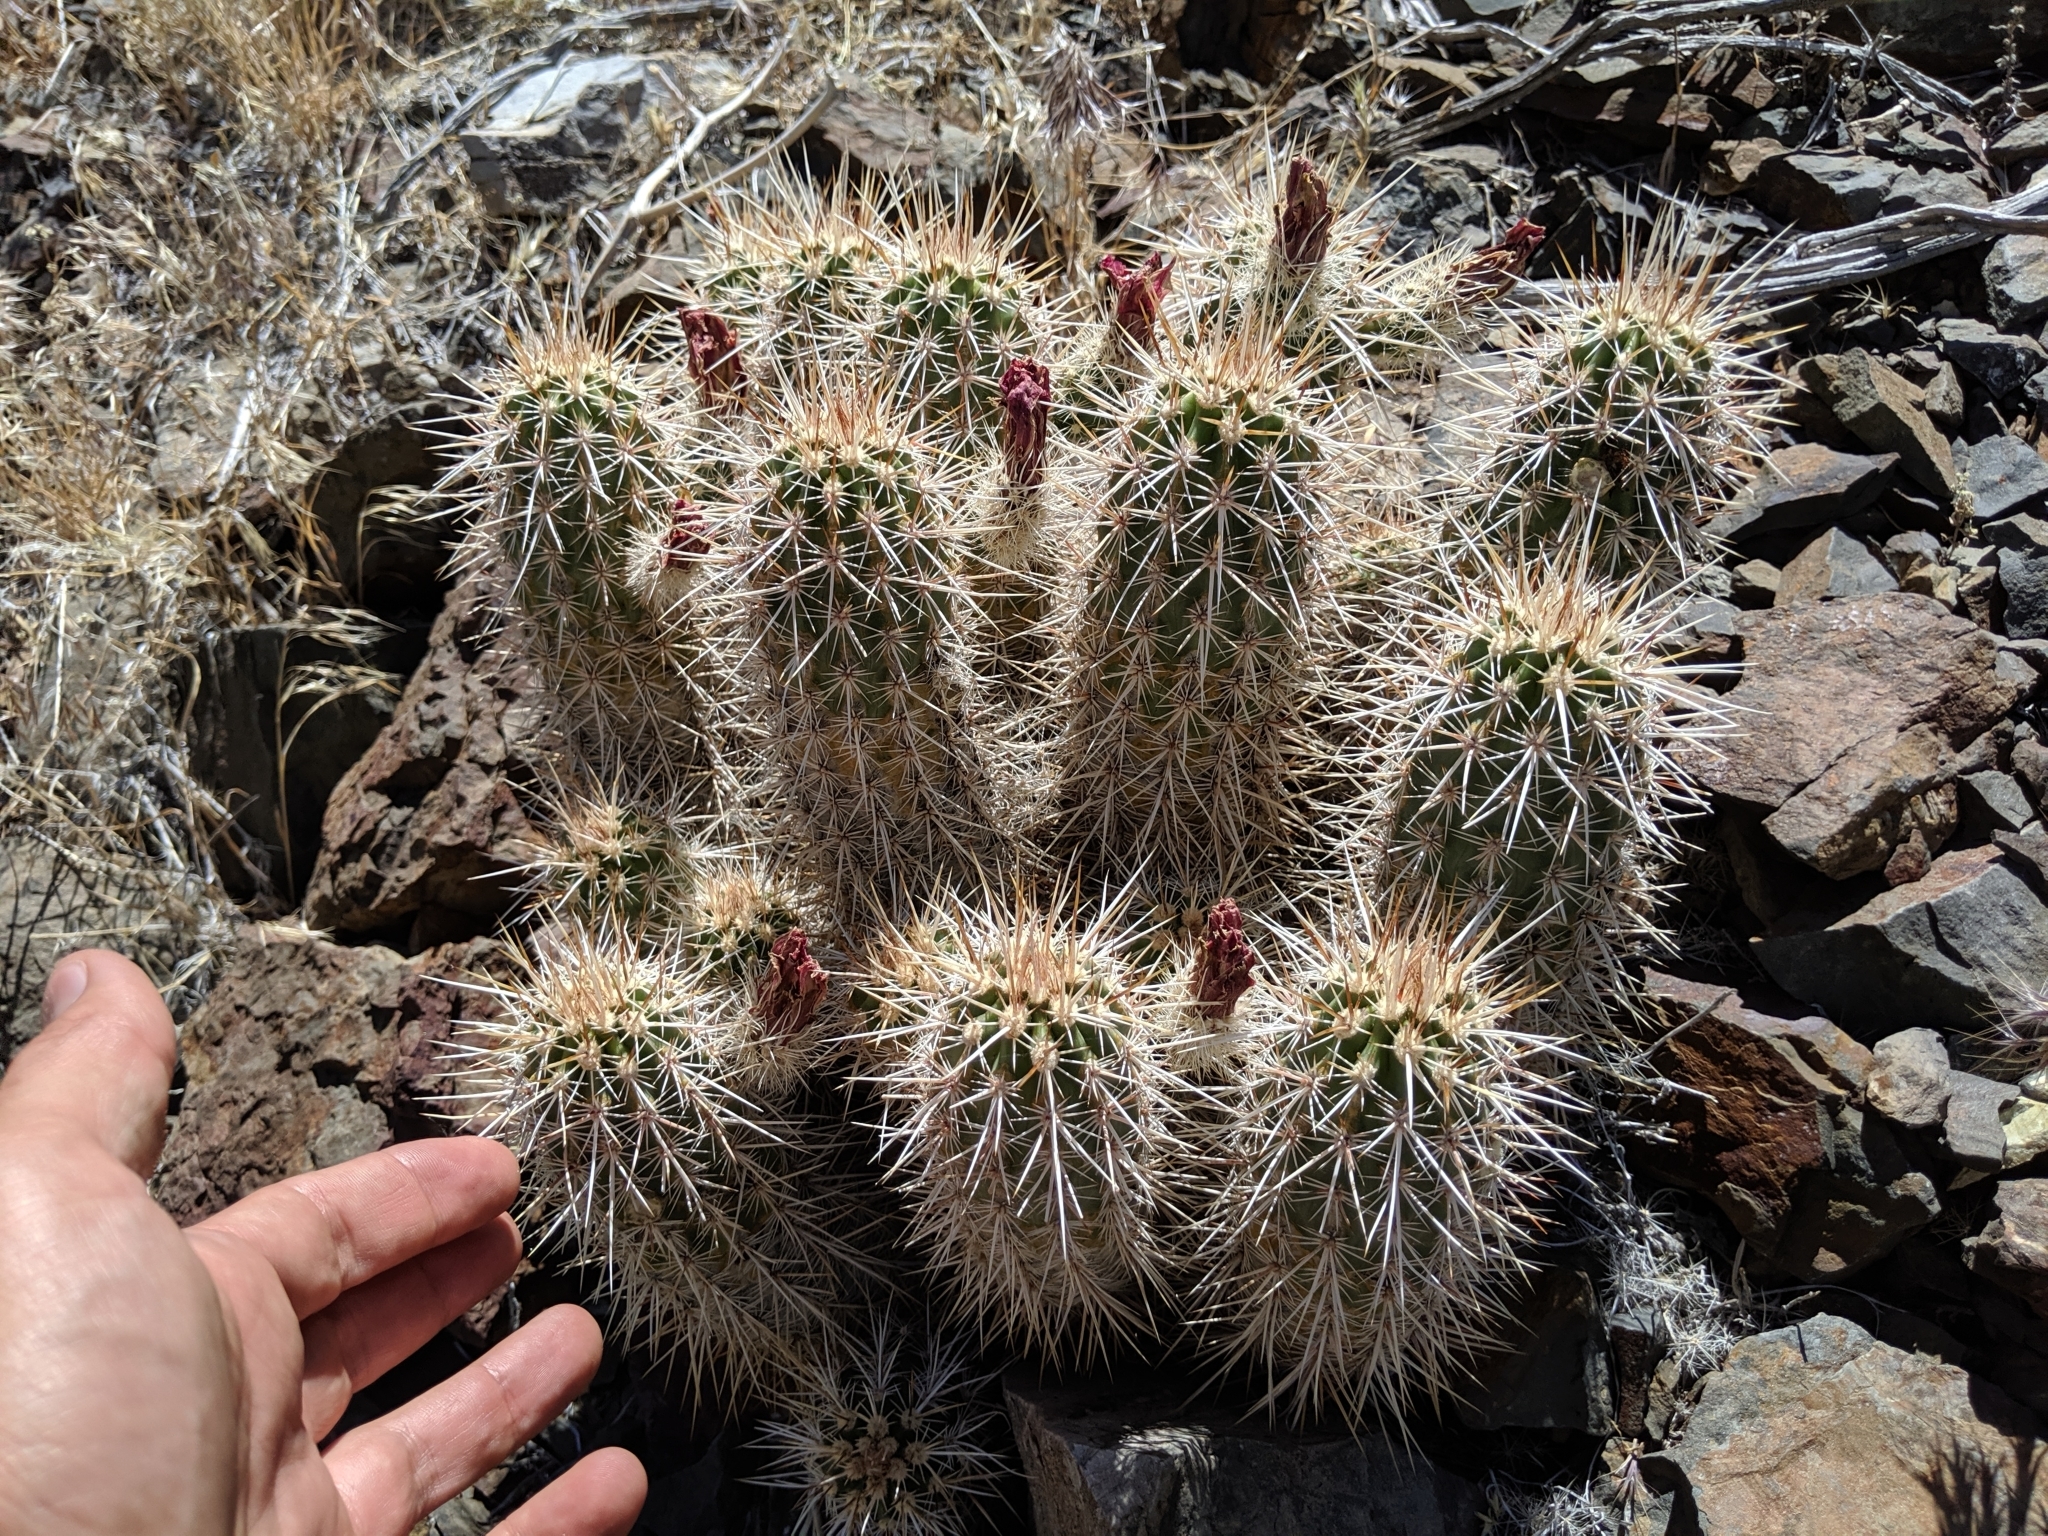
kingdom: Plantae
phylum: Tracheophyta
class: Magnoliopsida
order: Caryophyllales
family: Cactaceae
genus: Echinocereus
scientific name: Echinocereus engelmannii
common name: Engelmann's hedgehog cactus
